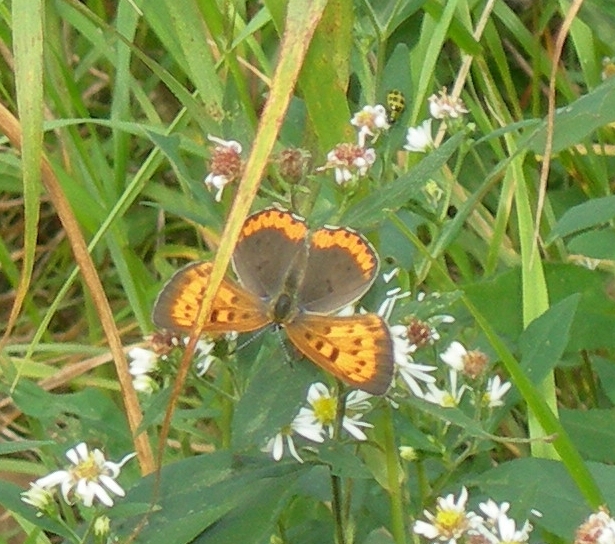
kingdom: Animalia
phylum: Arthropoda
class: Insecta
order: Lepidoptera
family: Lycaenidae
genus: Tharsalea
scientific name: Tharsalea hyllus
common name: Bronze copper
